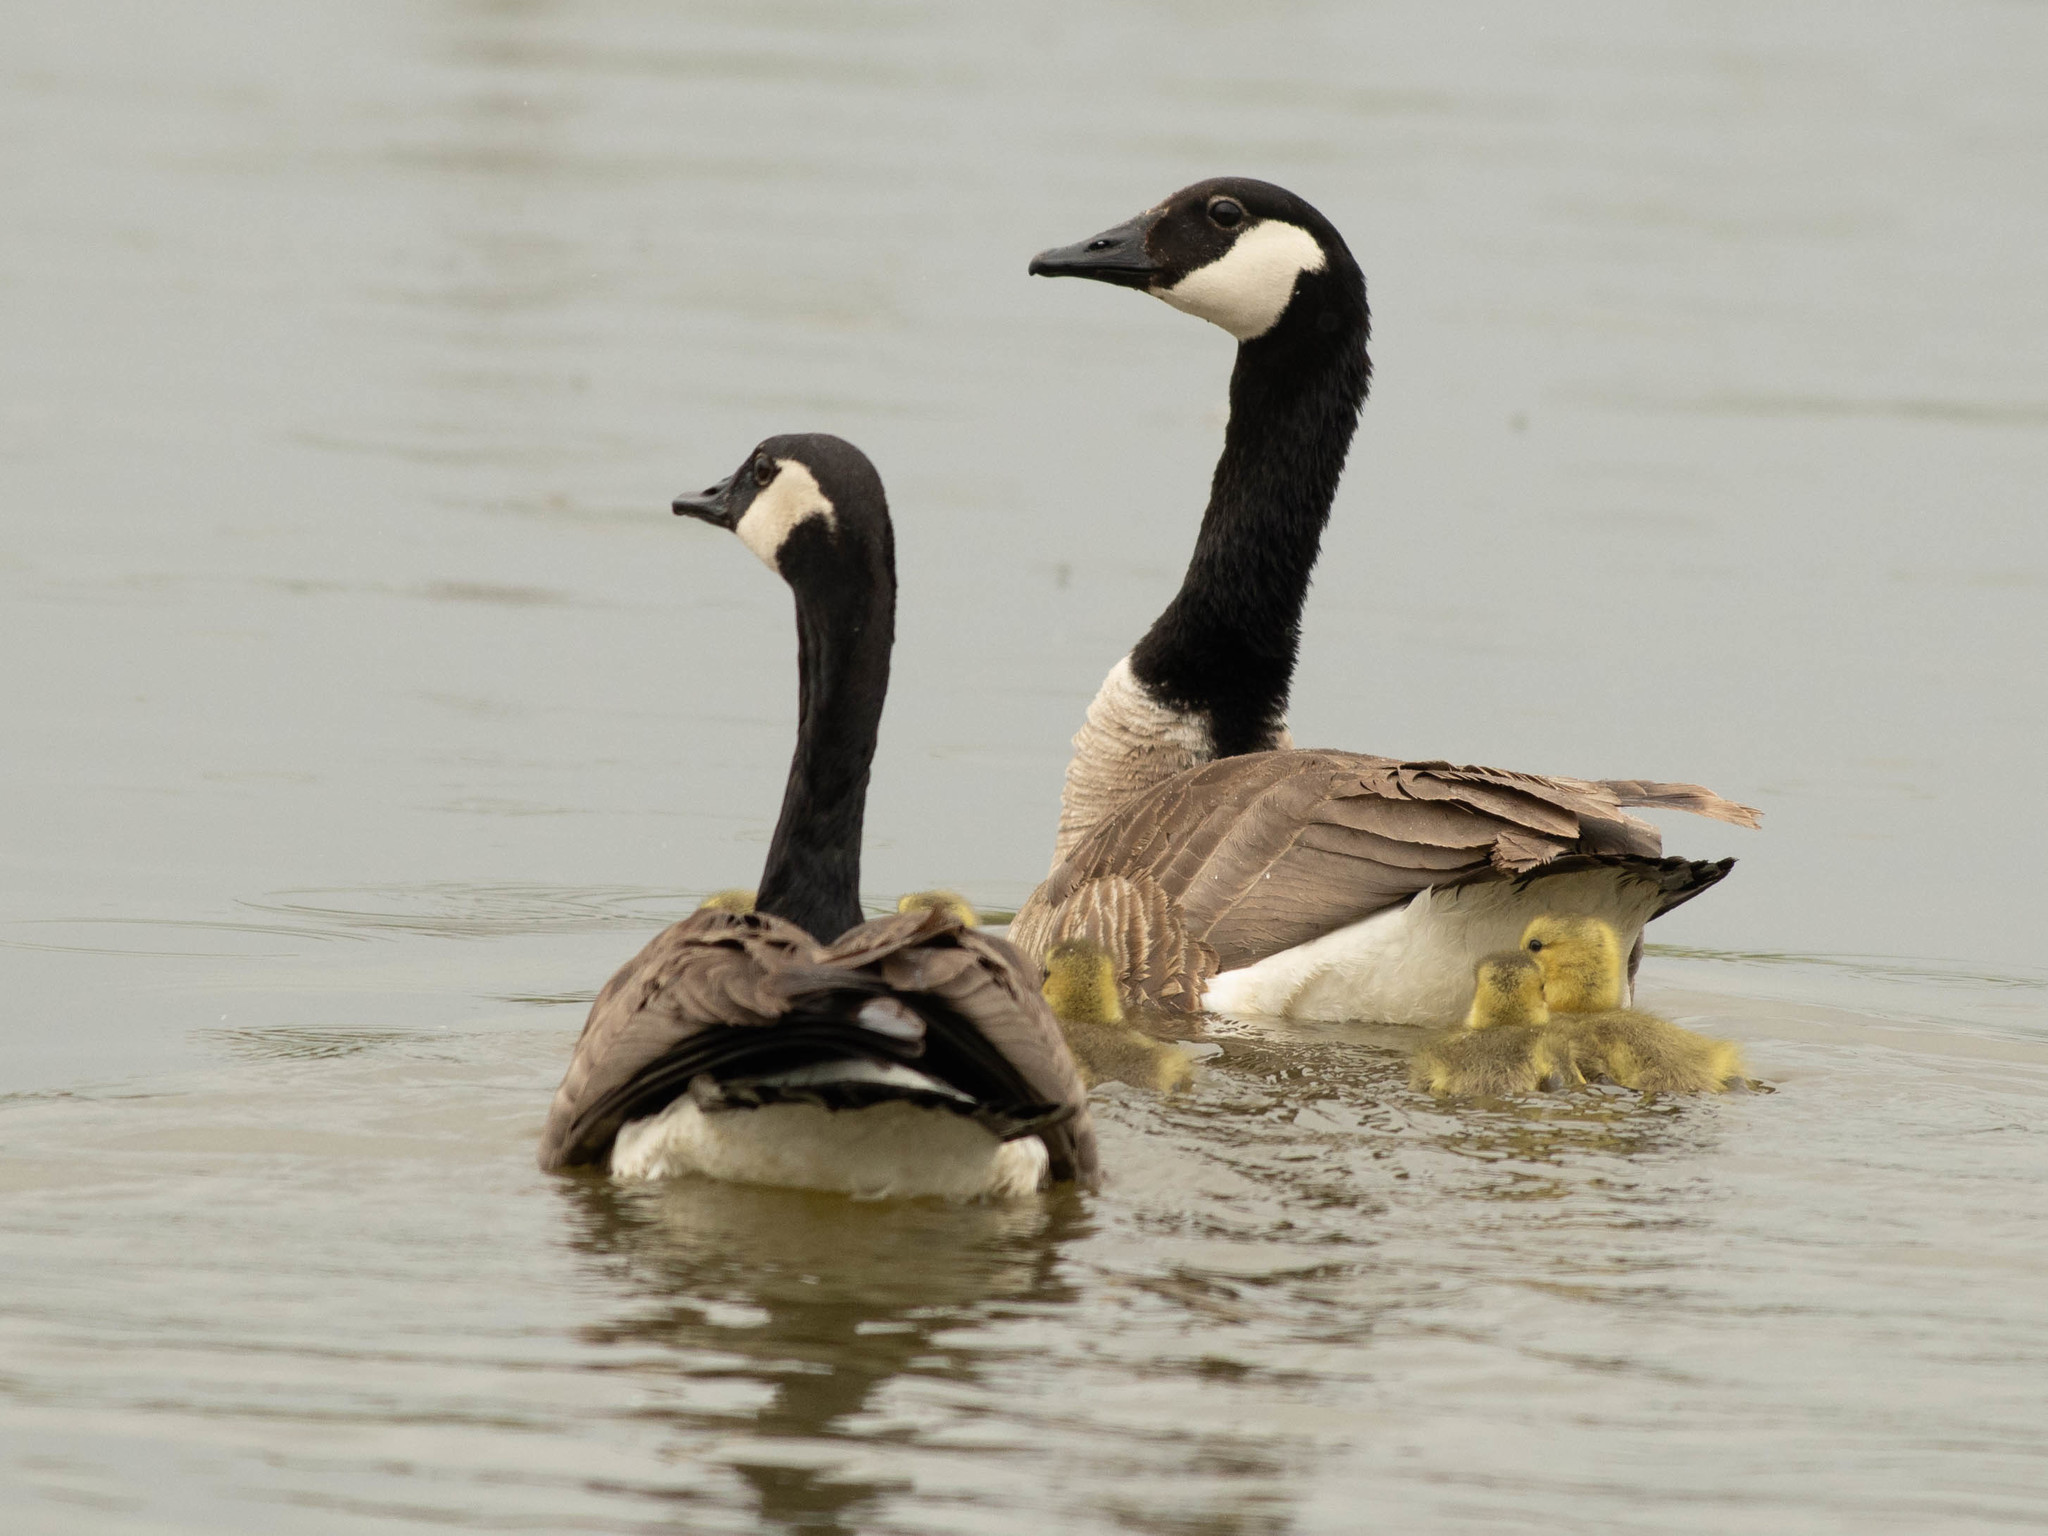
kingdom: Animalia
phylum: Chordata
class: Aves
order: Anseriformes
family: Anatidae
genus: Branta
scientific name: Branta canadensis
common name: Canada goose
